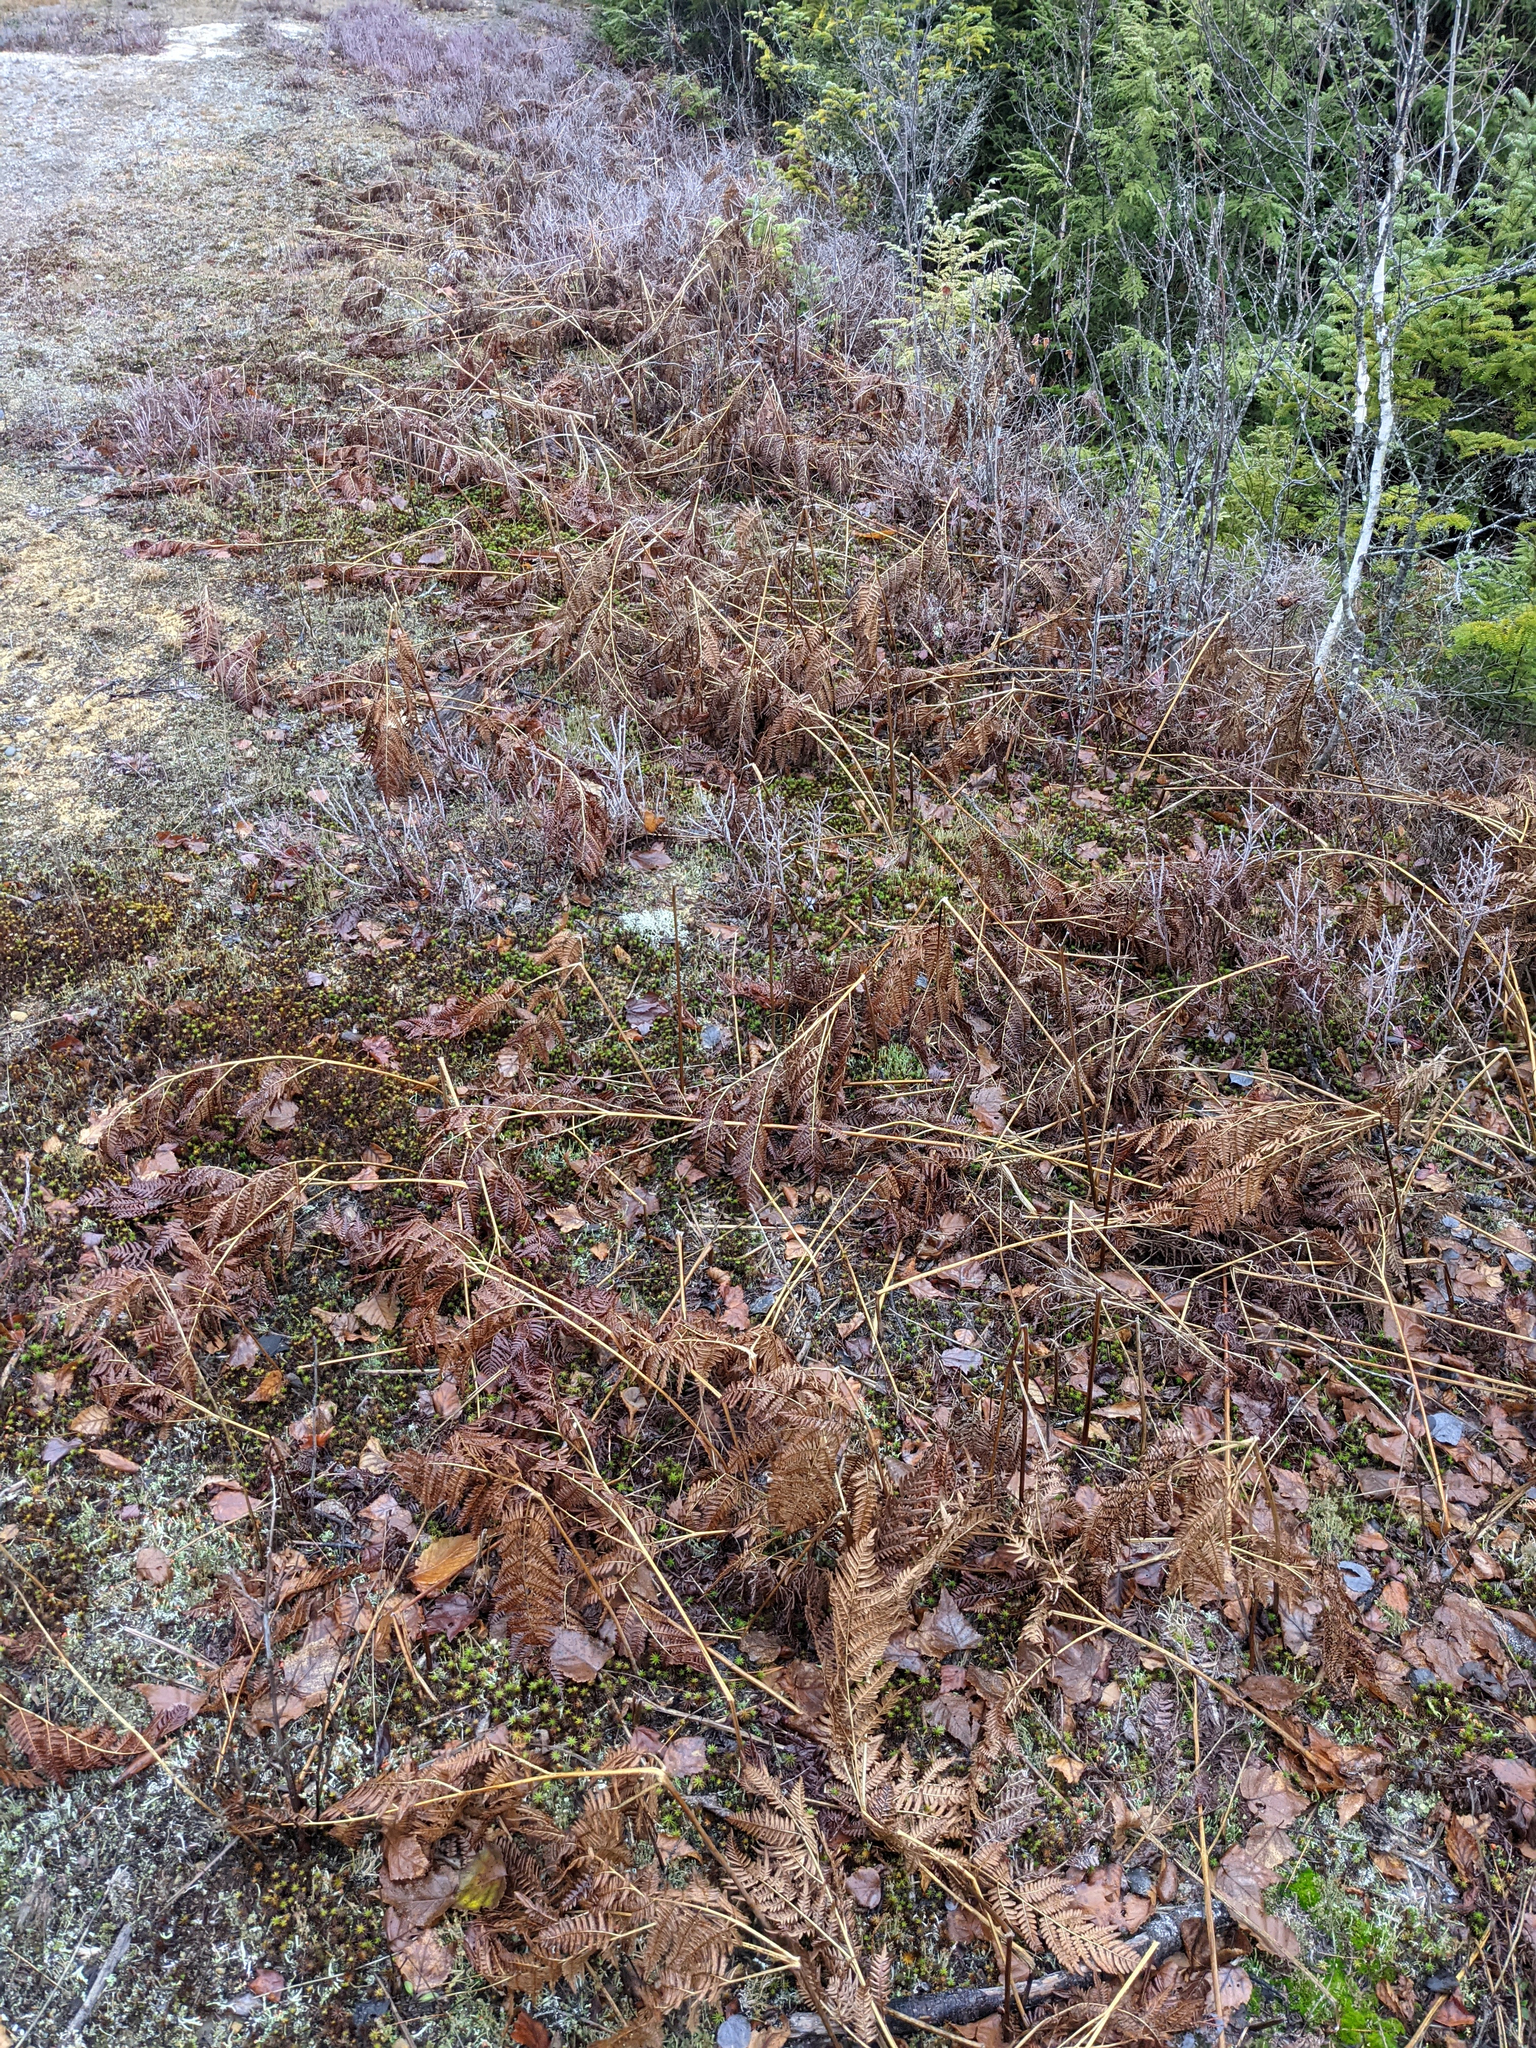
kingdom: Plantae
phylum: Tracheophyta
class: Polypodiopsida
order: Polypodiales
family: Dennstaedtiaceae
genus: Pteridium
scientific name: Pteridium aquilinum
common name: Bracken
